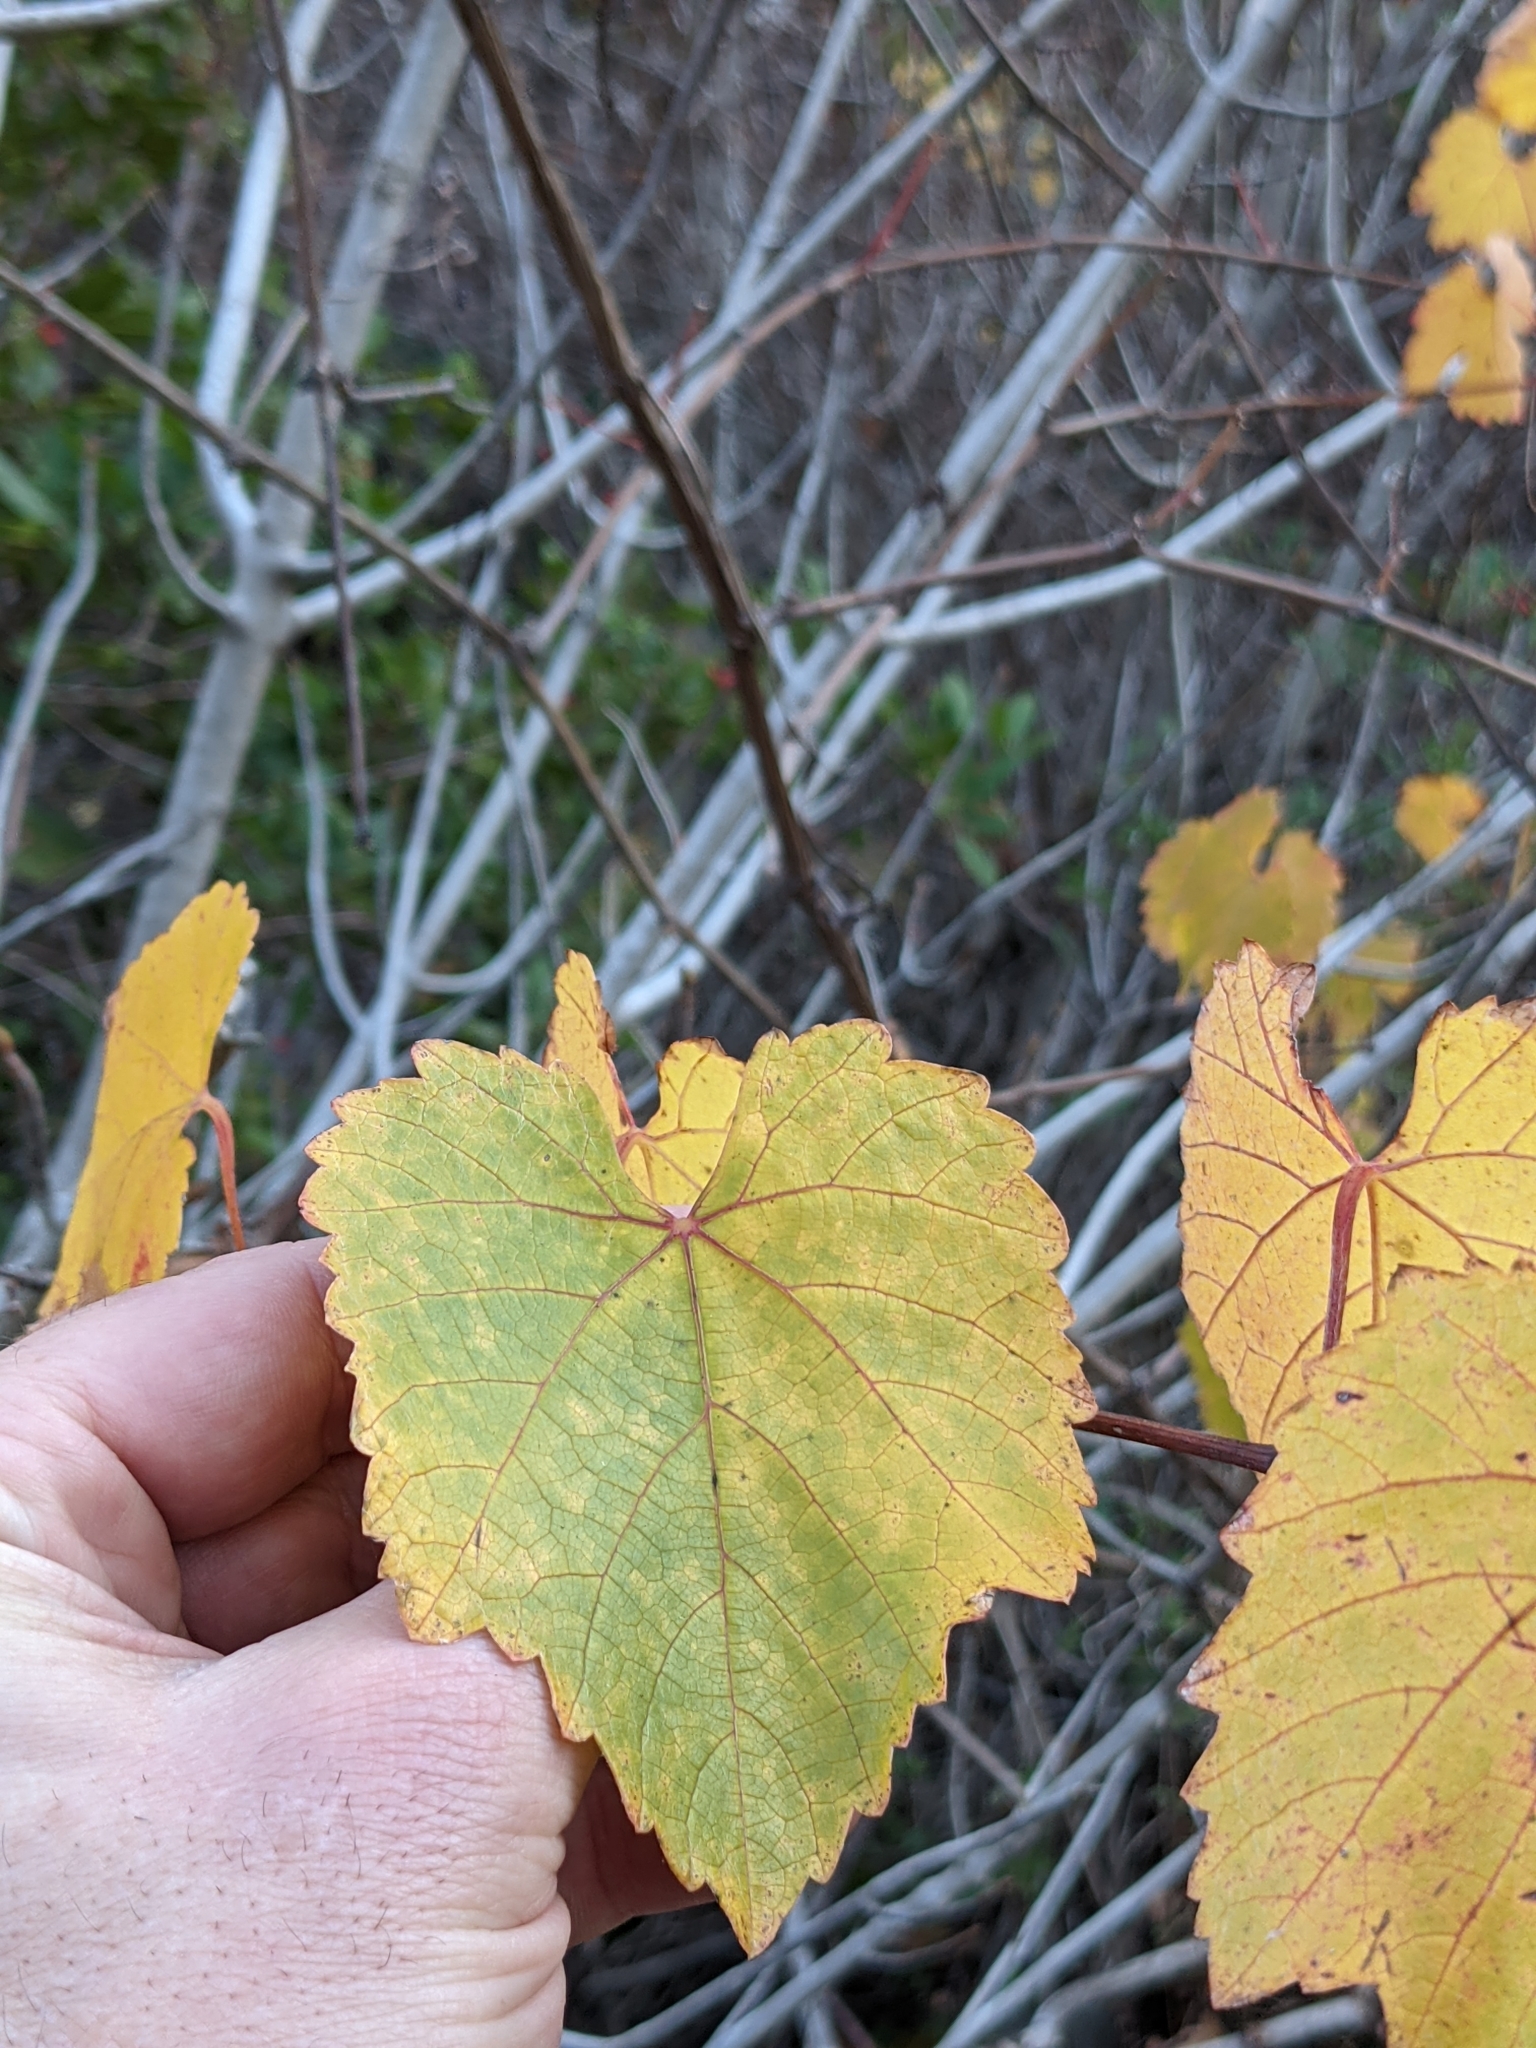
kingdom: Plantae
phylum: Tracheophyta
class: Magnoliopsida
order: Vitales
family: Vitaceae
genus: Vitis
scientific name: Vitis californica
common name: California wild grape
